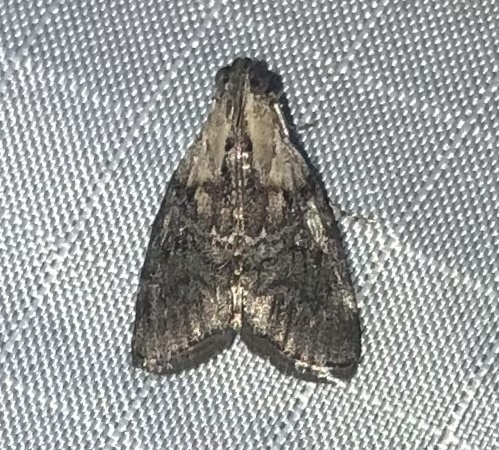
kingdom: Animalia
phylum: Arthropoda
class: Insecta
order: Lepidoptera
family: Pyralidae
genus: Pococera
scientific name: Pococera expandens
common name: Striped oak webworm moth
